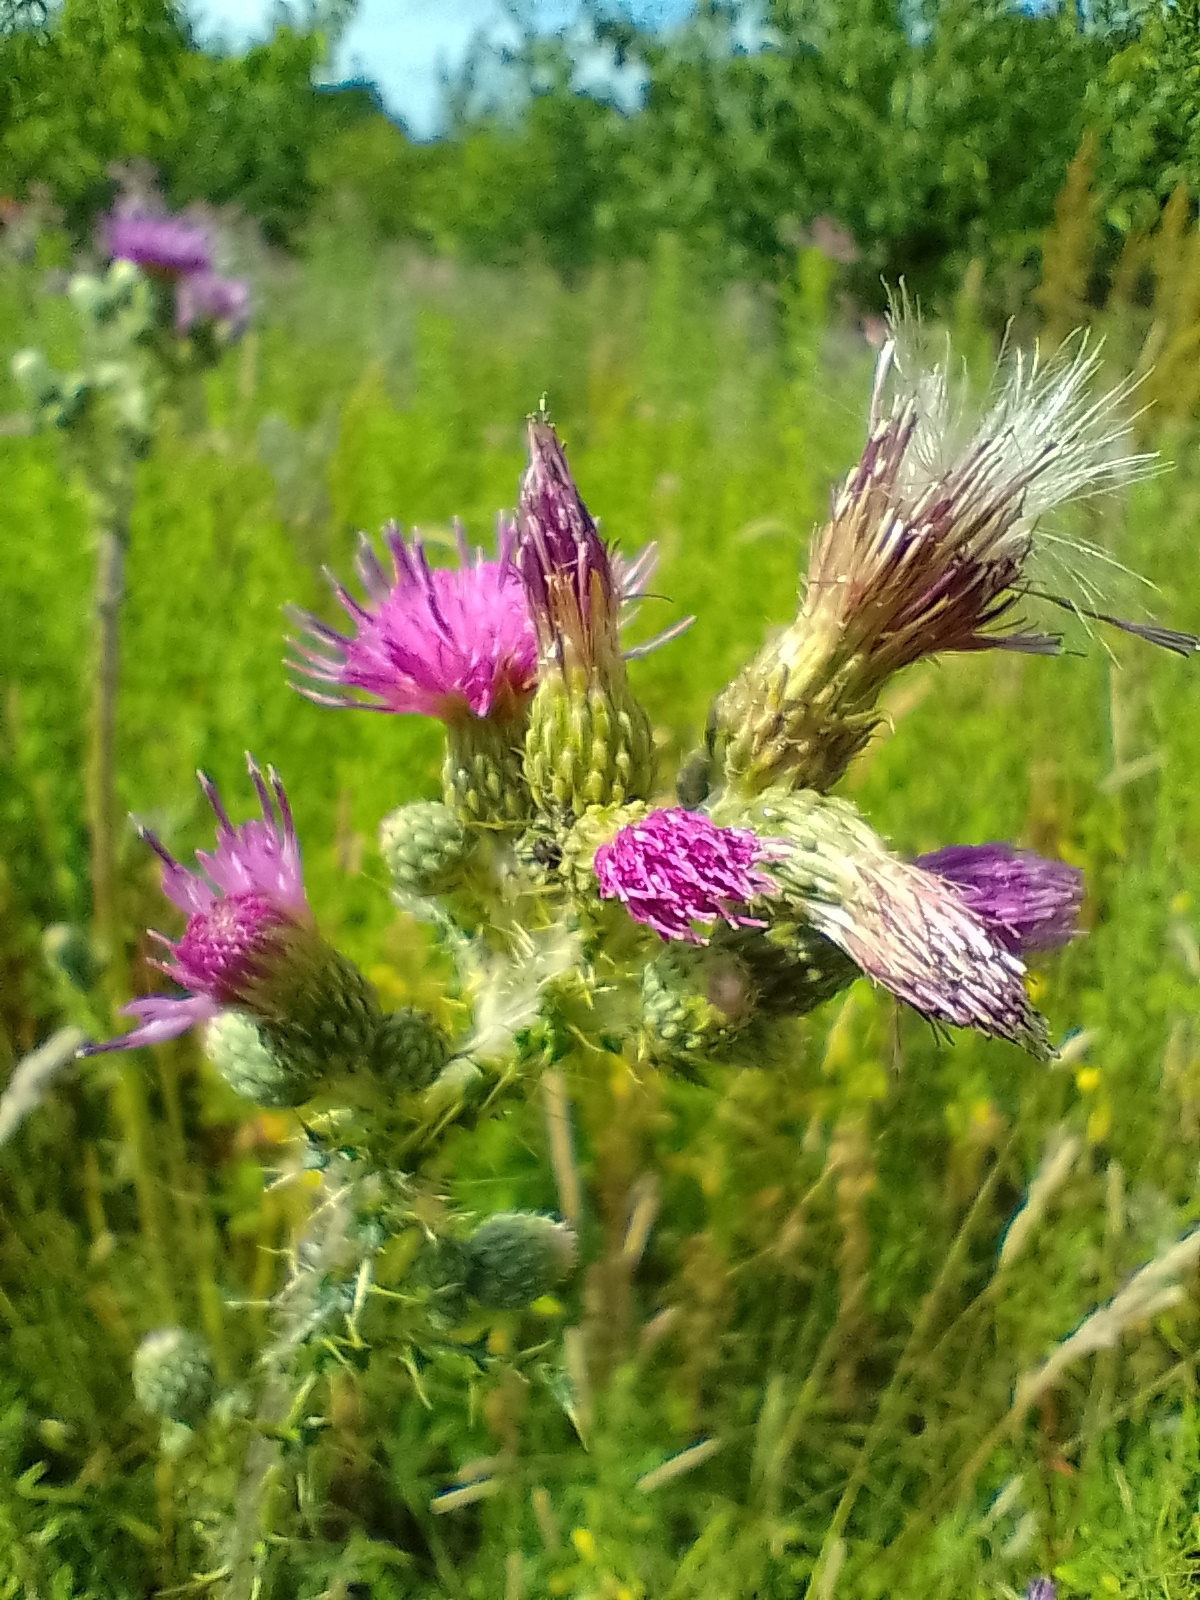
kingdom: Plantae
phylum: Tracheophyta
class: Magnoliopsida
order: Asterales
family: Asteraceae
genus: Cirsium
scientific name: Cirsium palustre
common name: Marsh thistle
